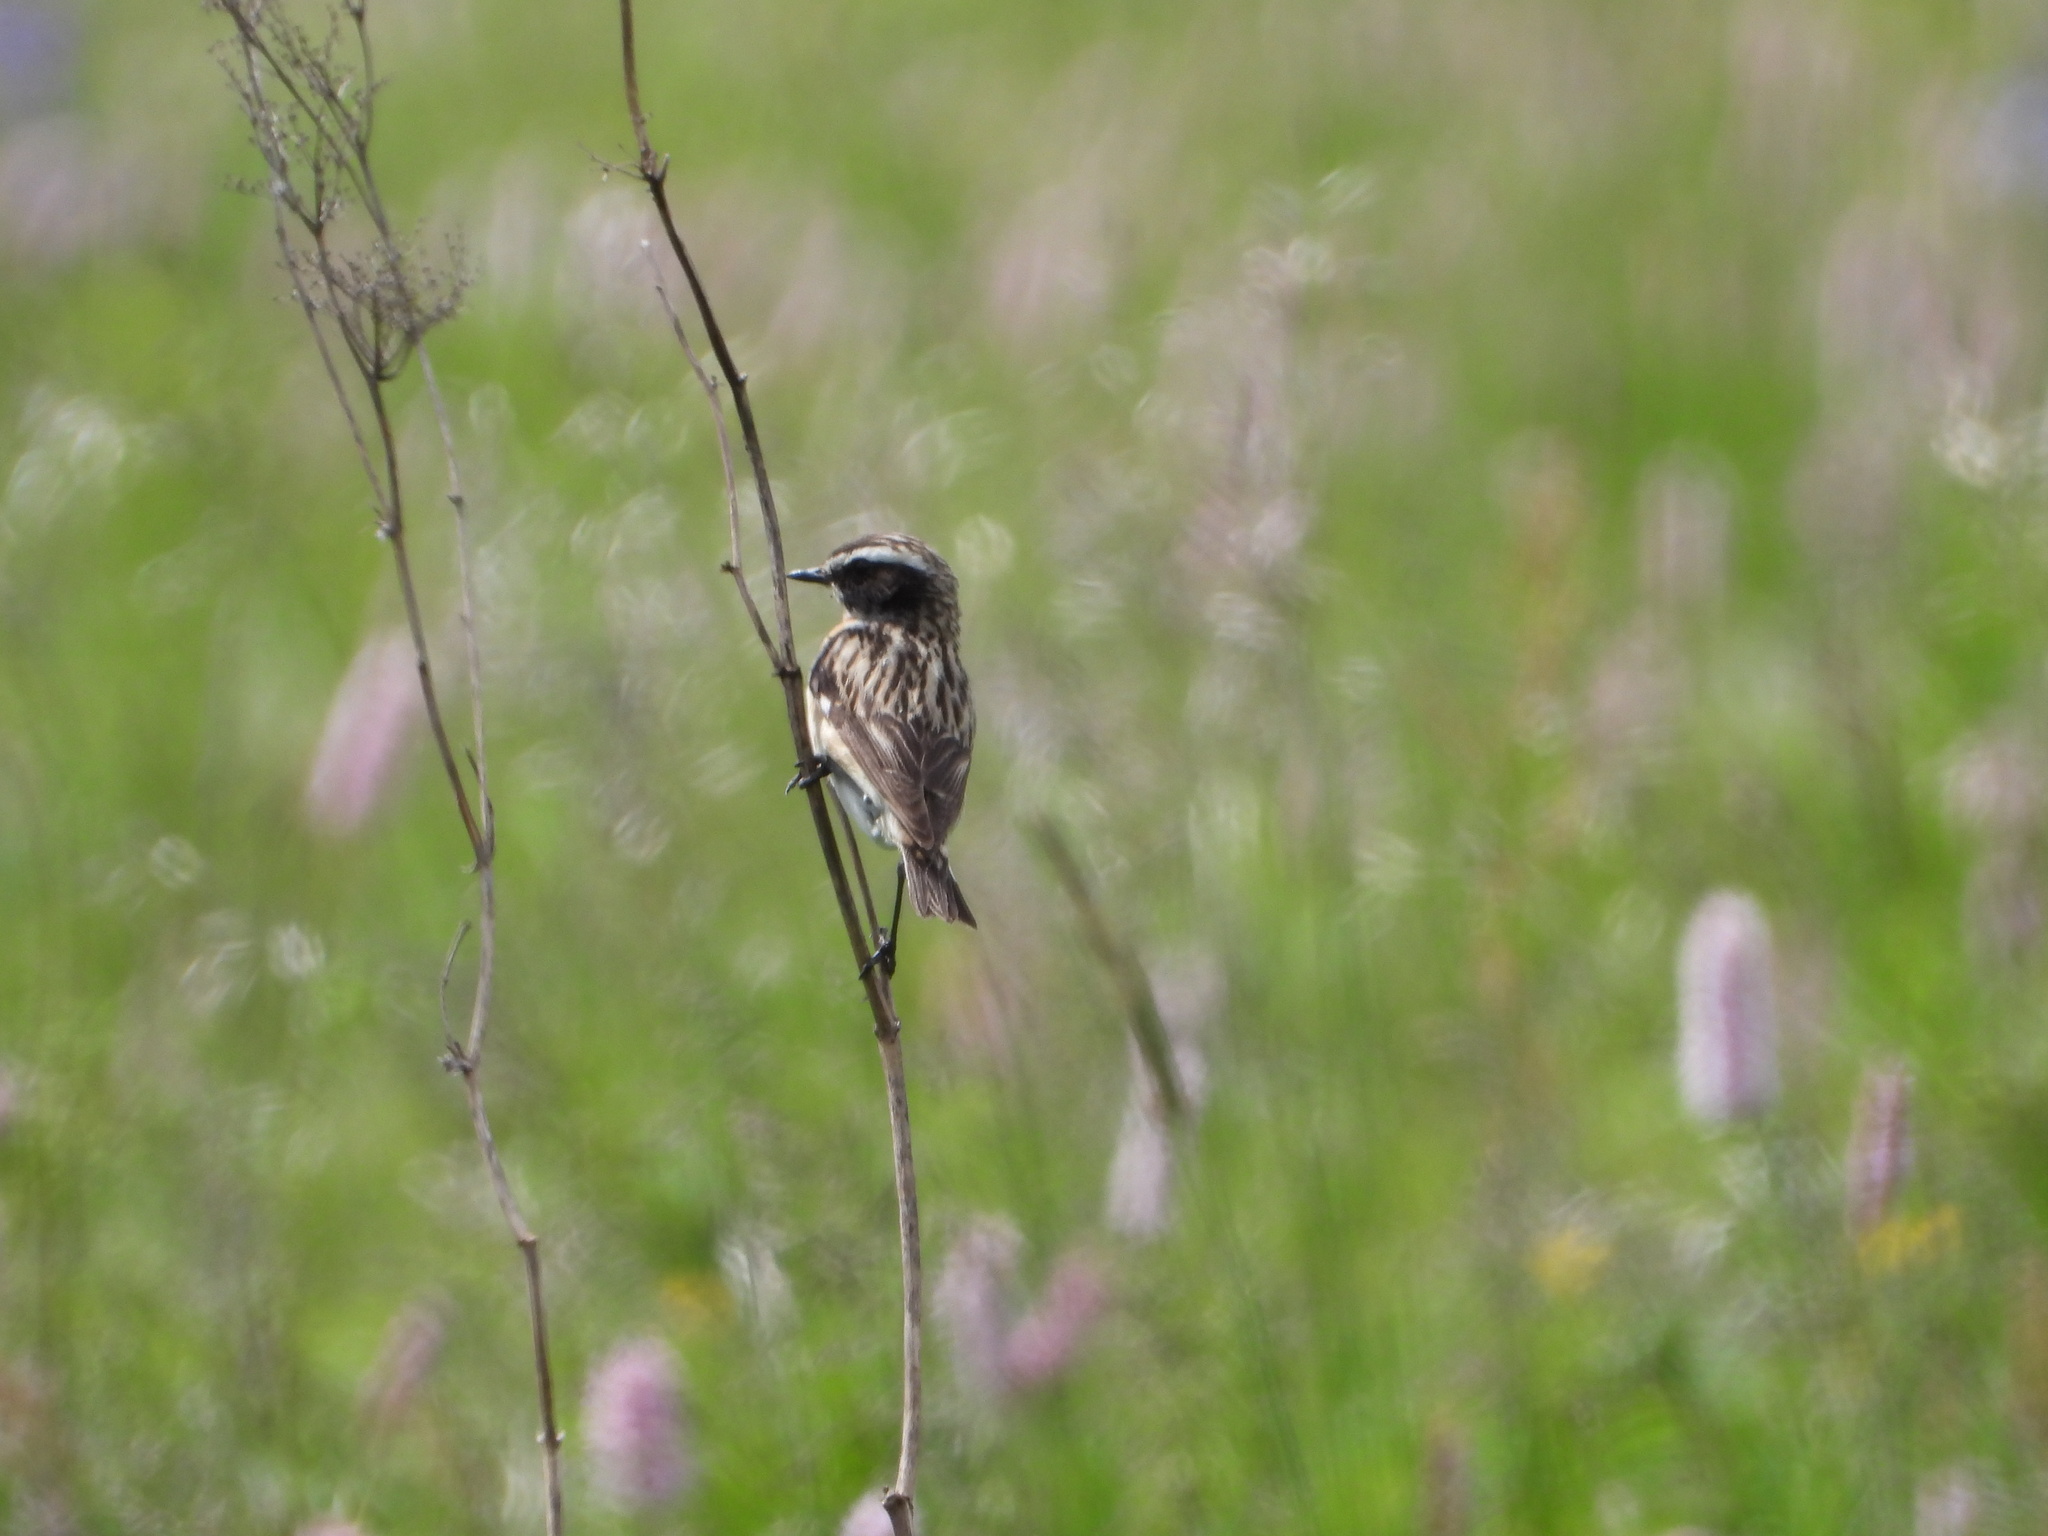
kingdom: Animalia
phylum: Chordata
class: Aves
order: Passeriformes
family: Muscicapidae
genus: Saxicola
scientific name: Saxicola rubetra
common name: Whinchat
